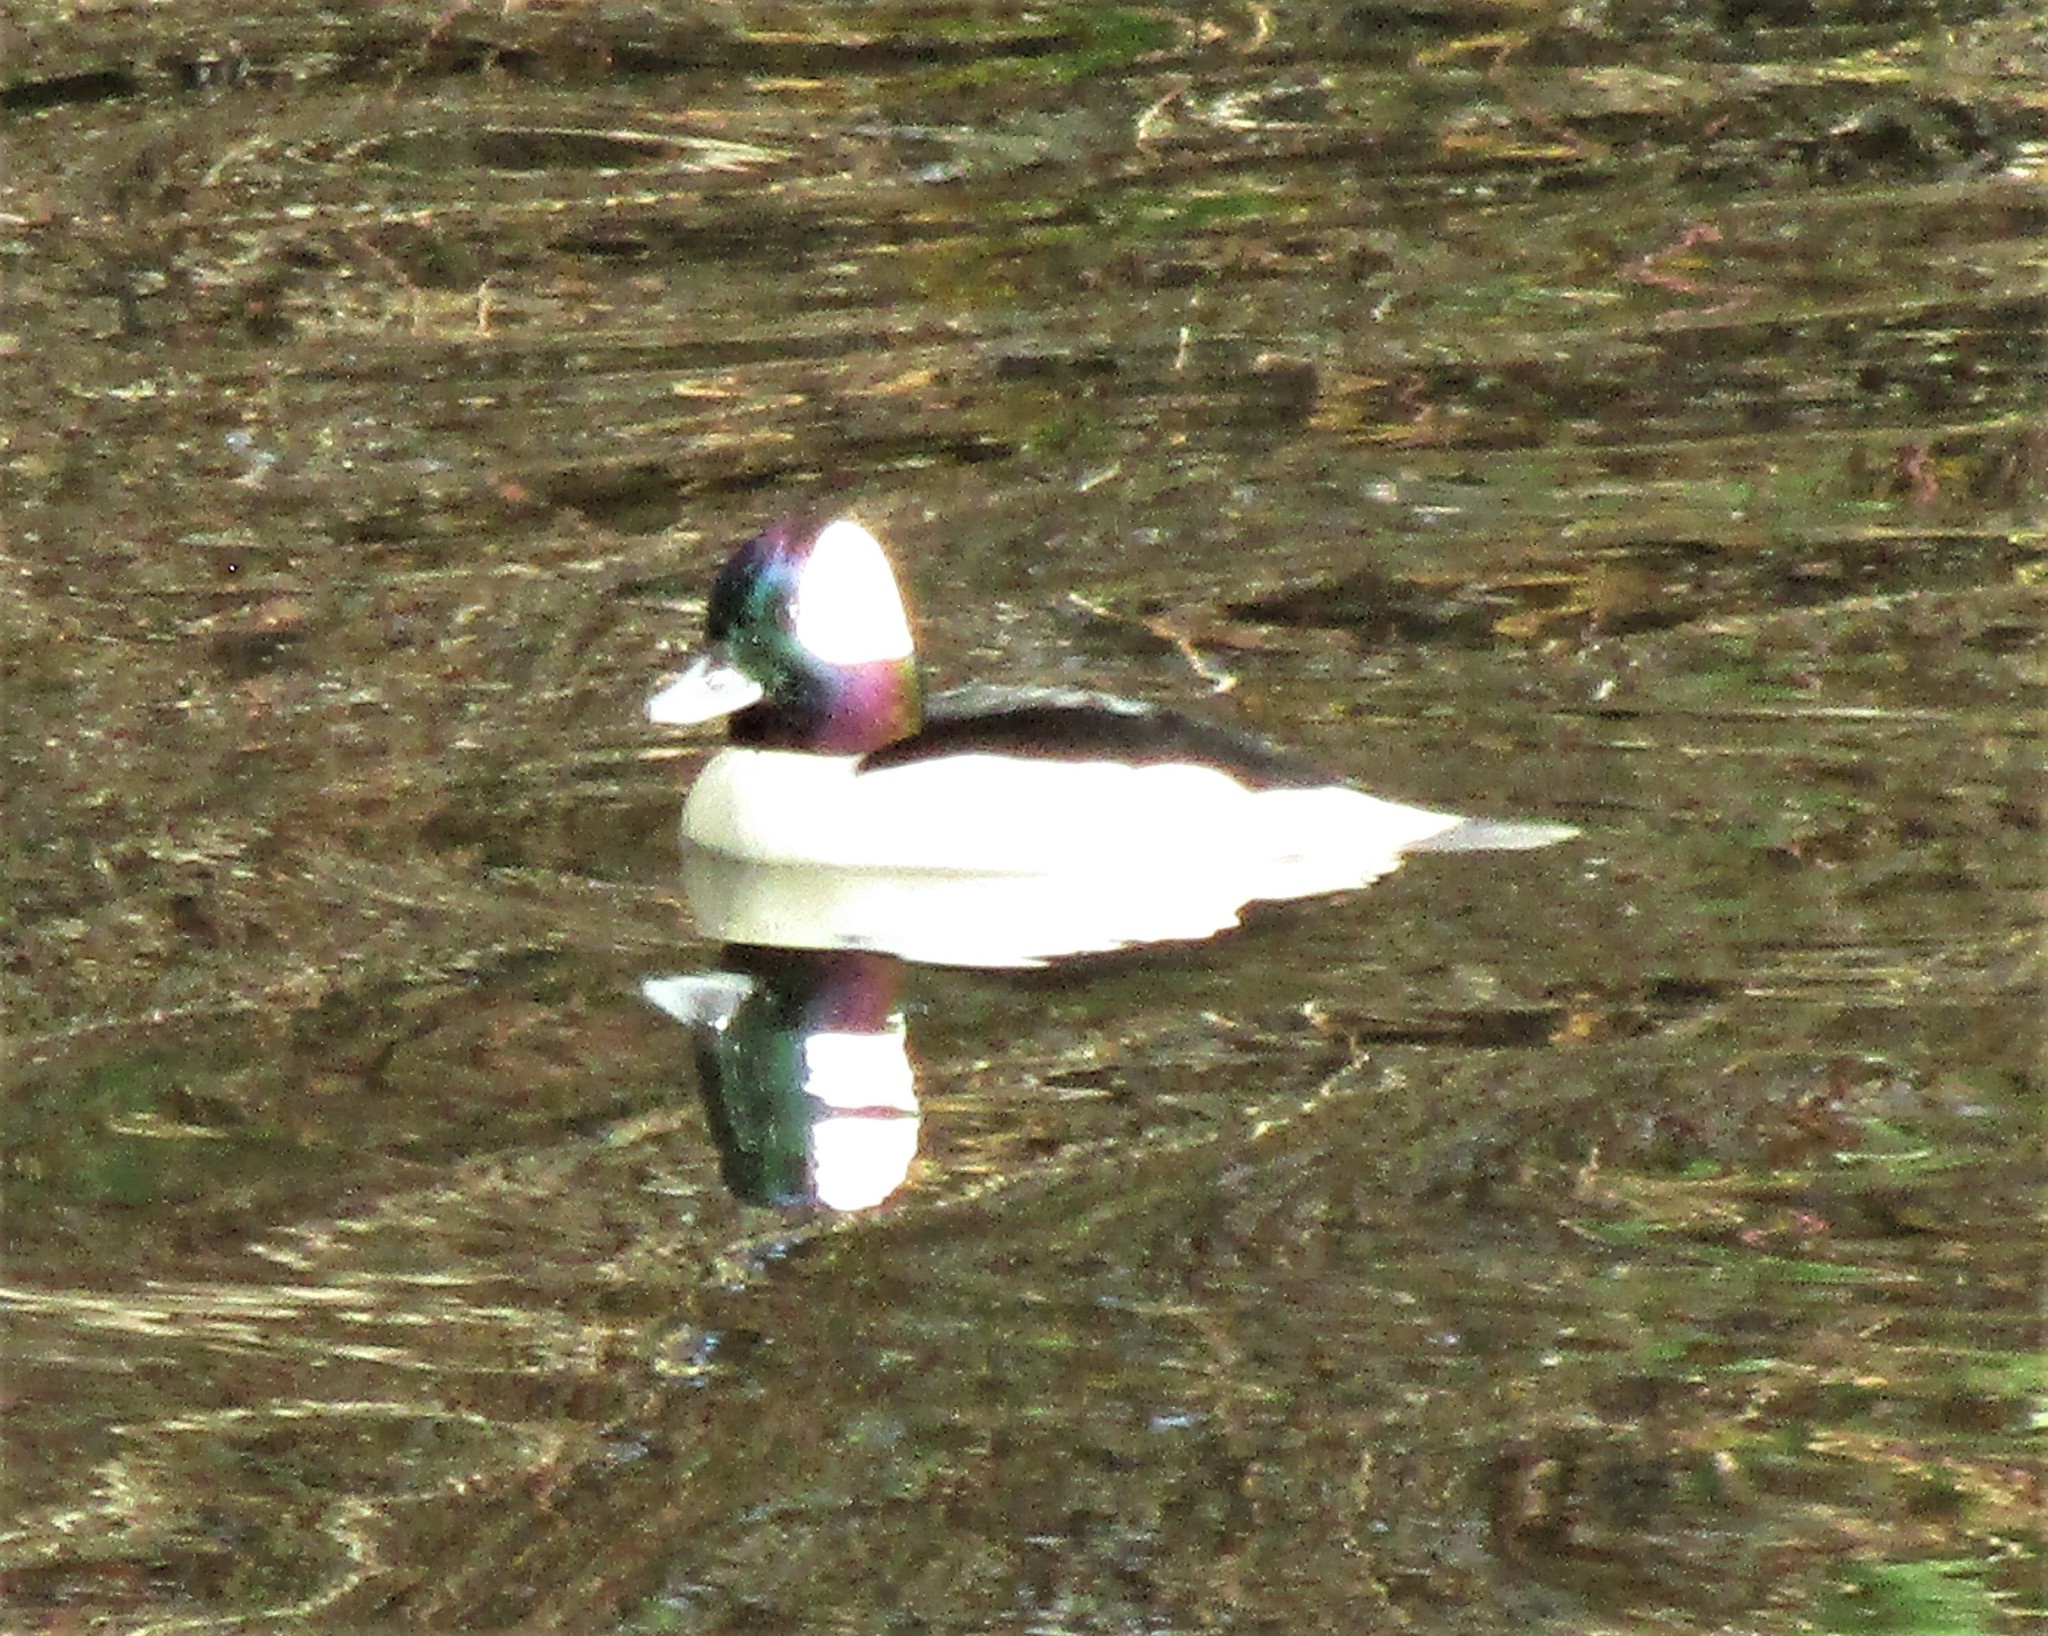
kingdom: Animalia
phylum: Chordata
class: Aves
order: Anseriformes
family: Anatidae
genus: Bucephala
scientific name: Bucephala albeola
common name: Bufflehead
